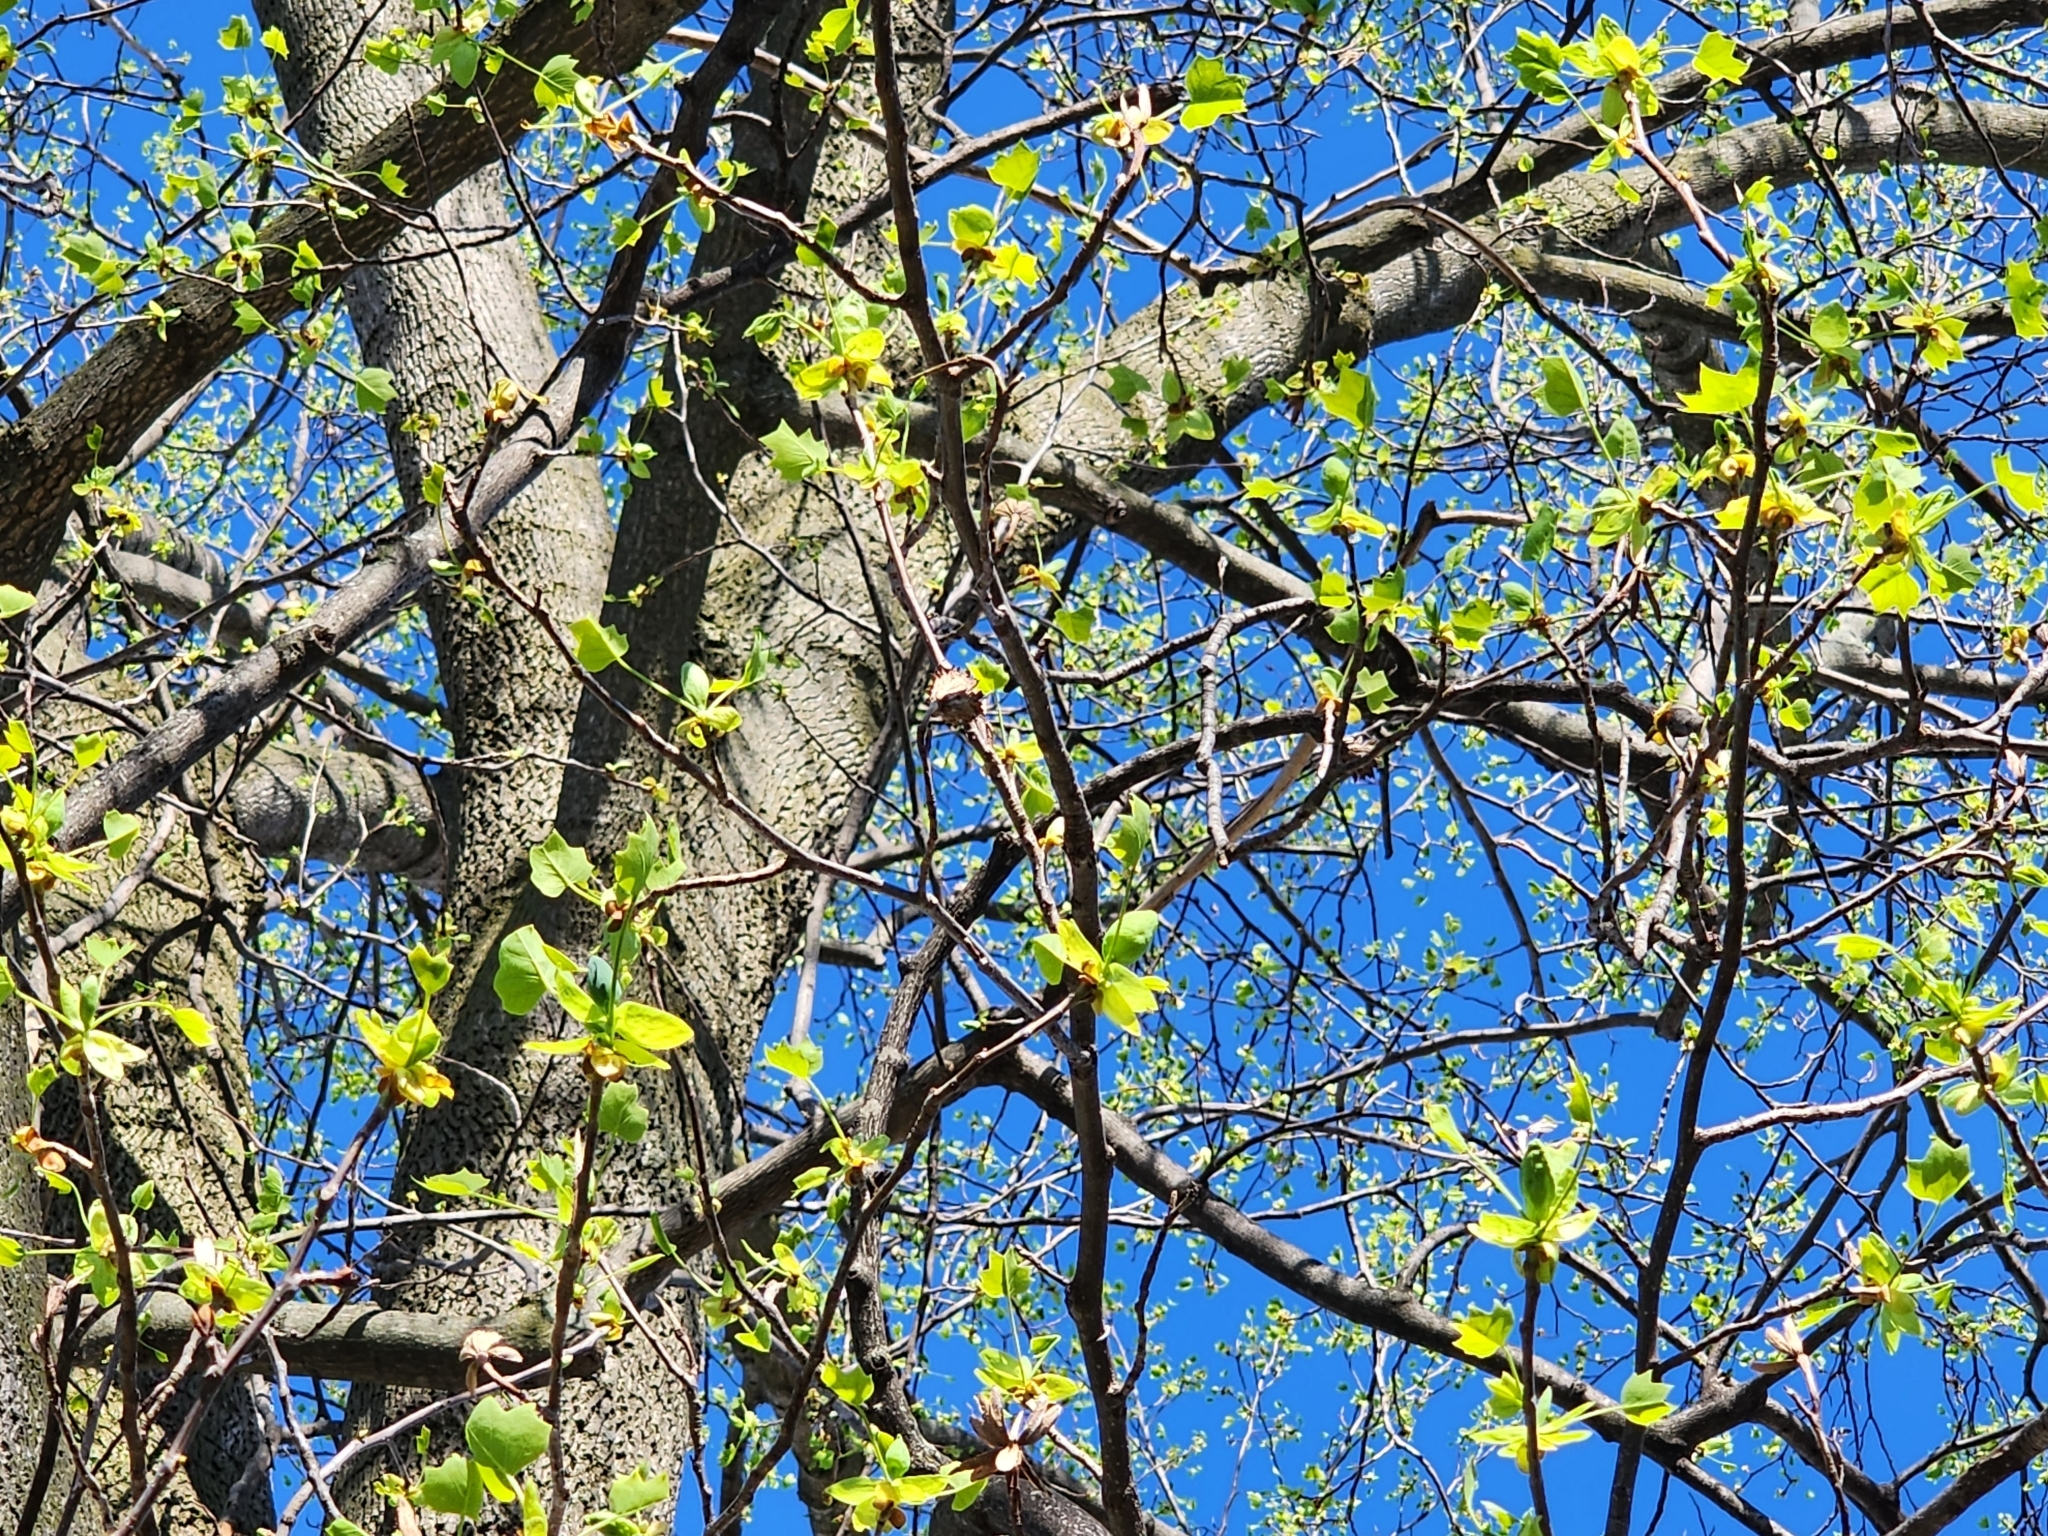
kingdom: Plantae
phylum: Tracheophyta
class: Magnoliopsida
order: Magnoliales
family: Magnoliaceae
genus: Liriodendron
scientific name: Liriodendron tulipifera
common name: Tulip tree
